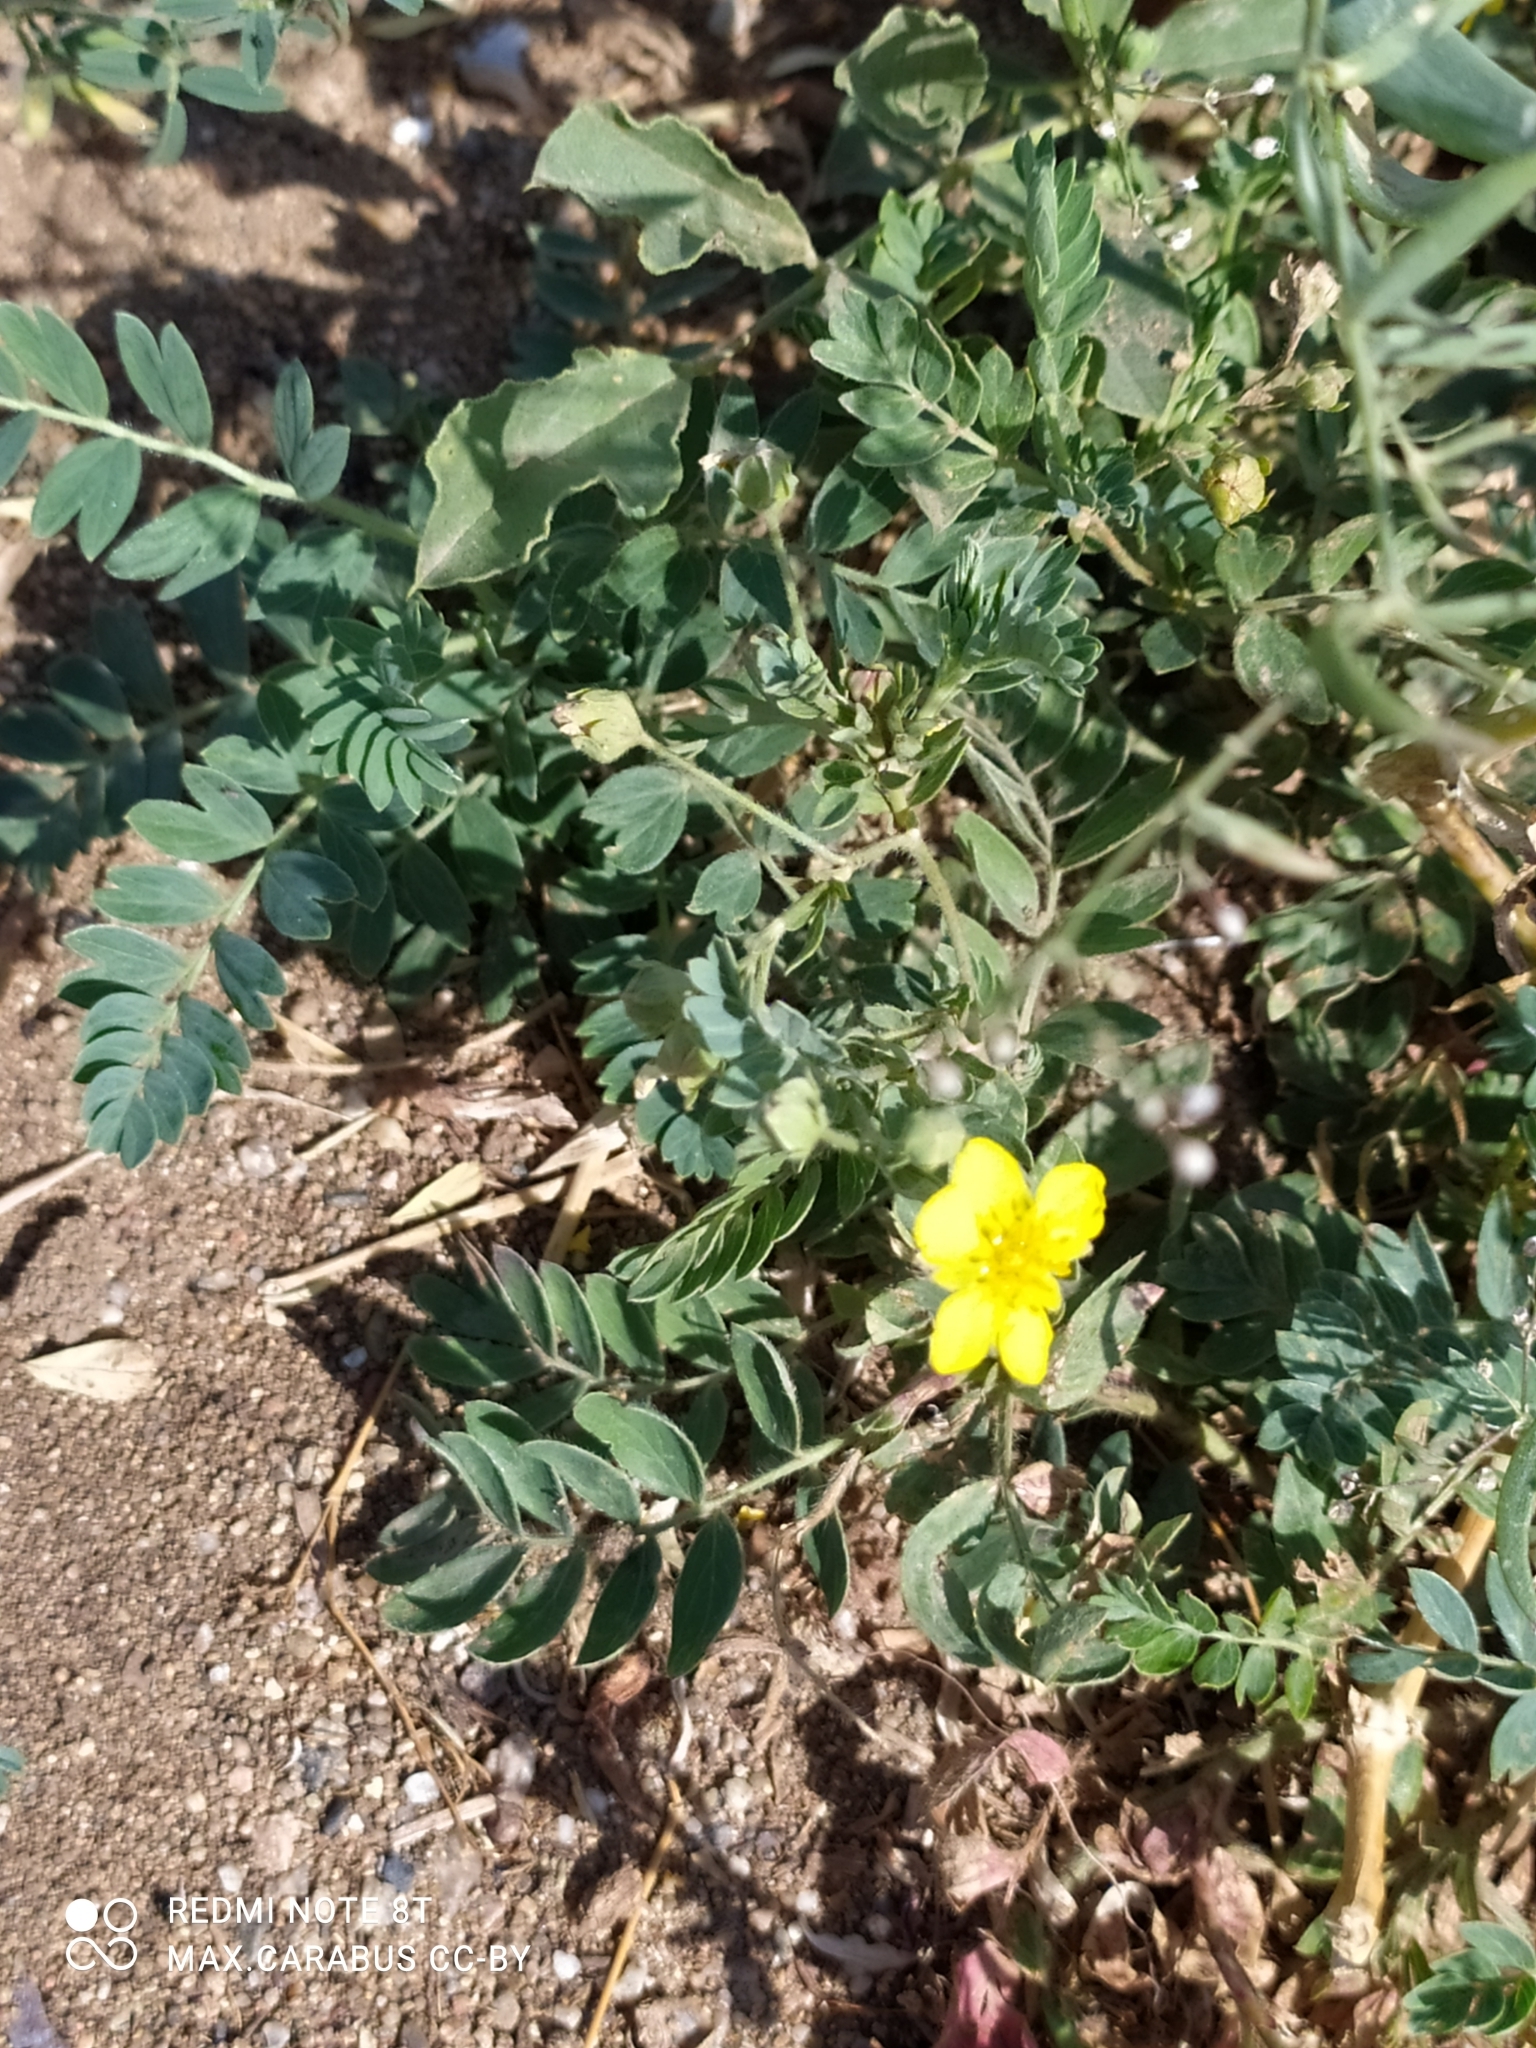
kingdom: Plantae
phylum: Tracheophyta
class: Magnoliopsida
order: Rosales
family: Rosaceae
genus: Sibbaldianthe
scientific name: Sibbaldianthe bifurca
